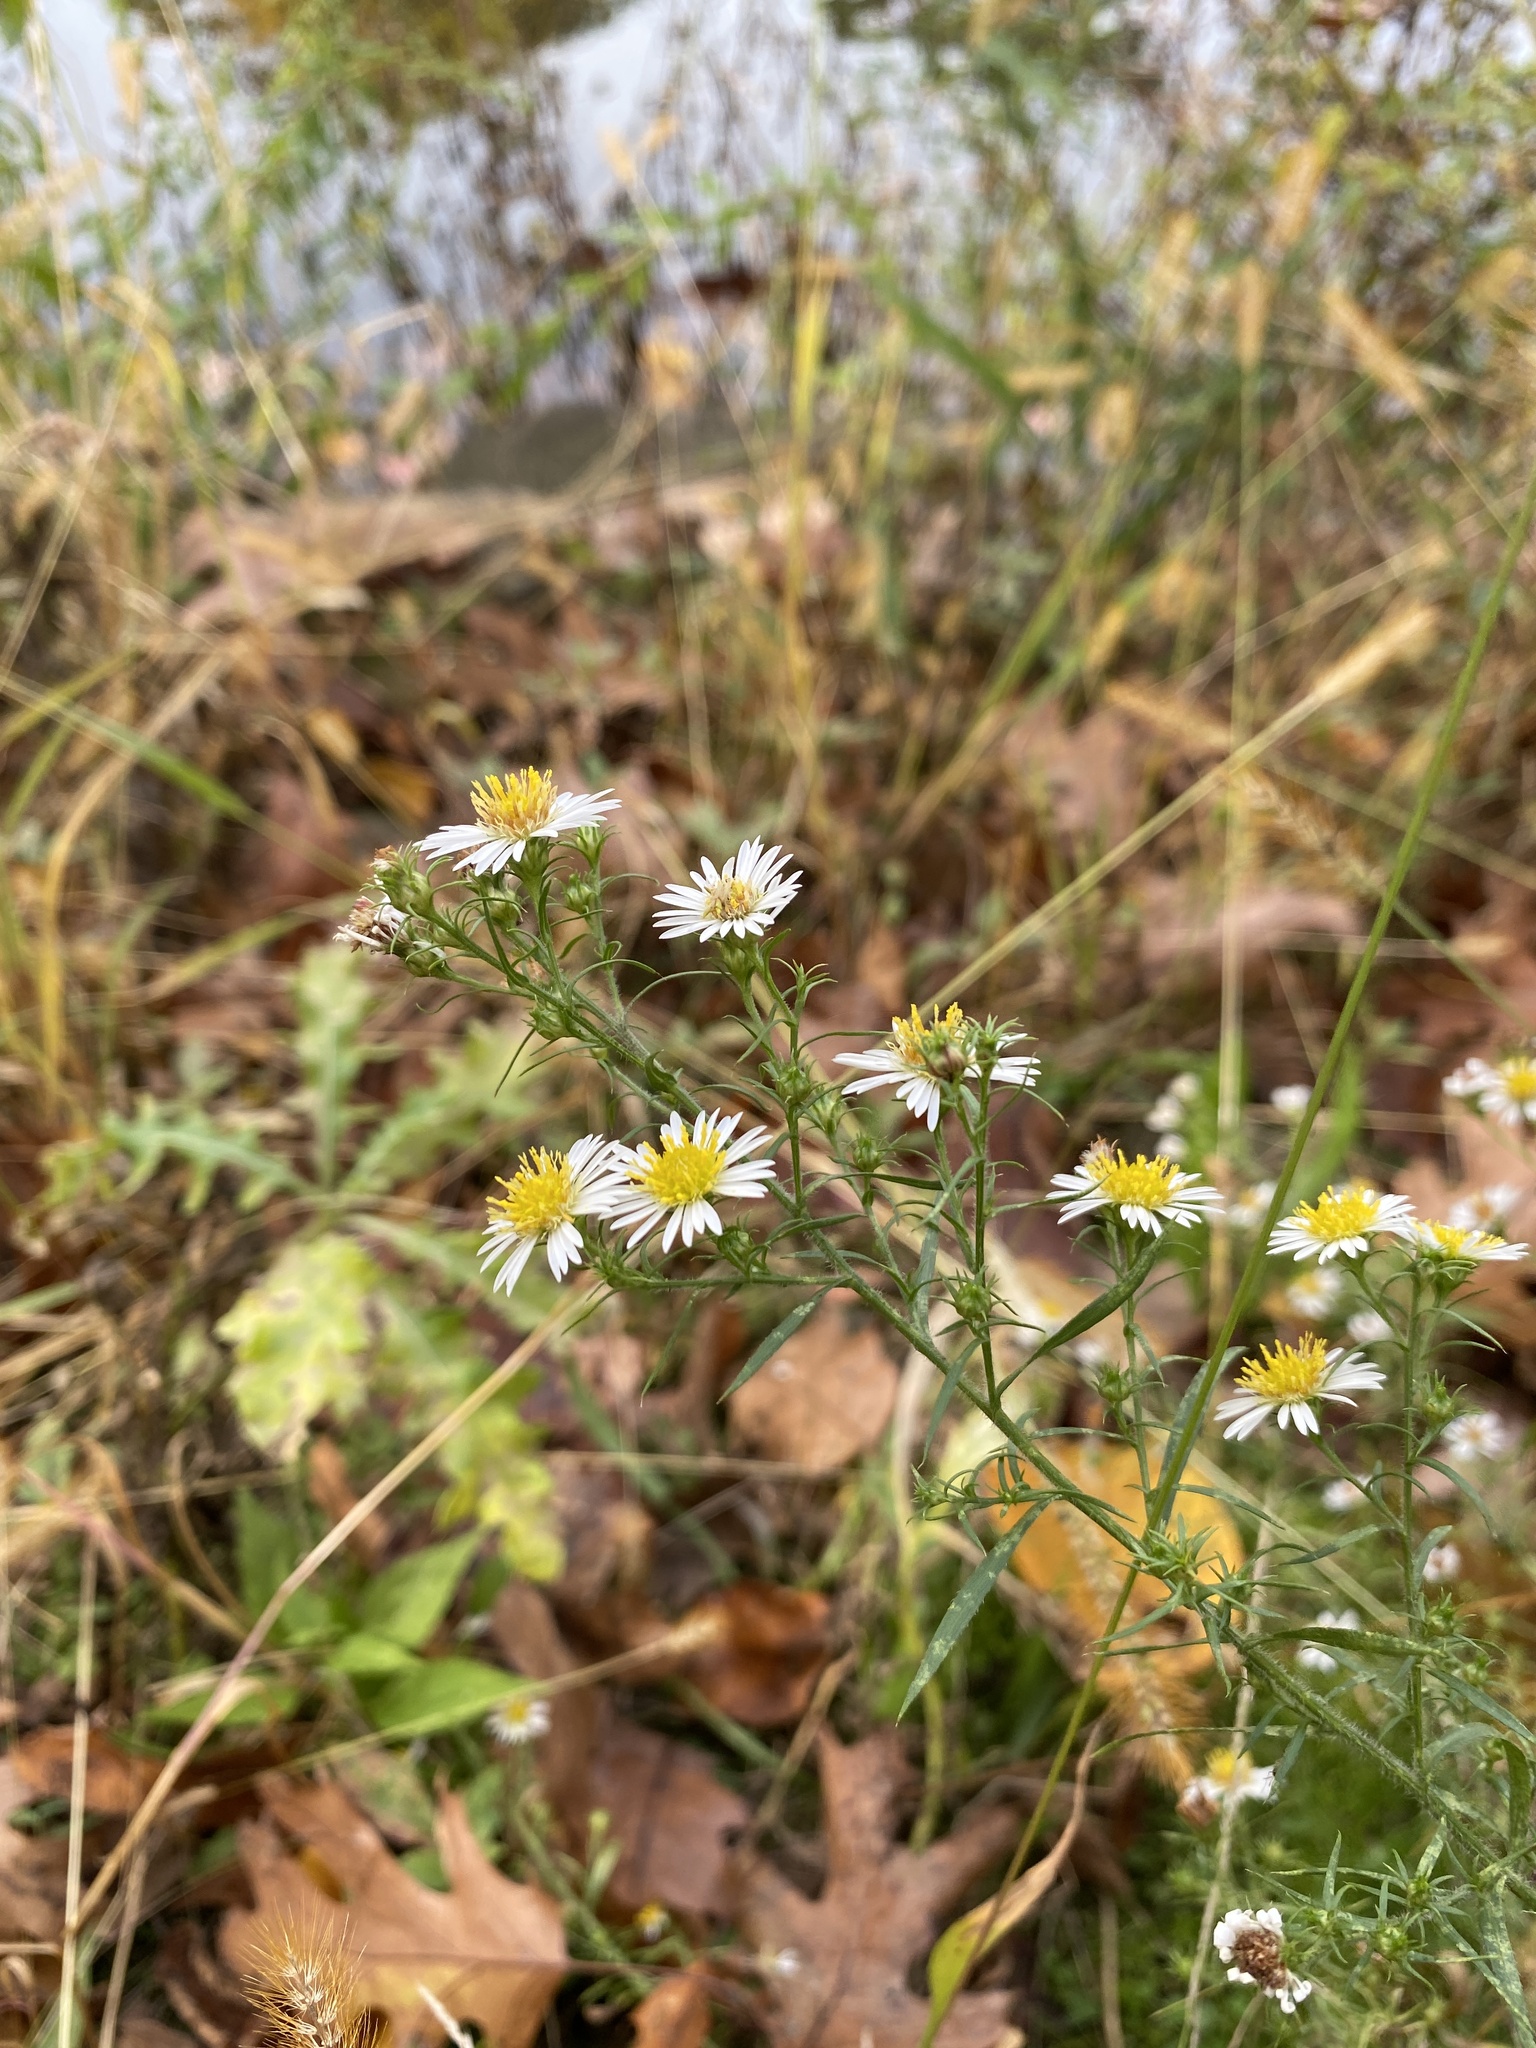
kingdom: Plantae
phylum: Tracheophyta
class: Magnoliopsida
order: Asterales
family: Asteraceae
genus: Symphyotrichum
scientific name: Symphyotrichum pilosum
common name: Awl aster
